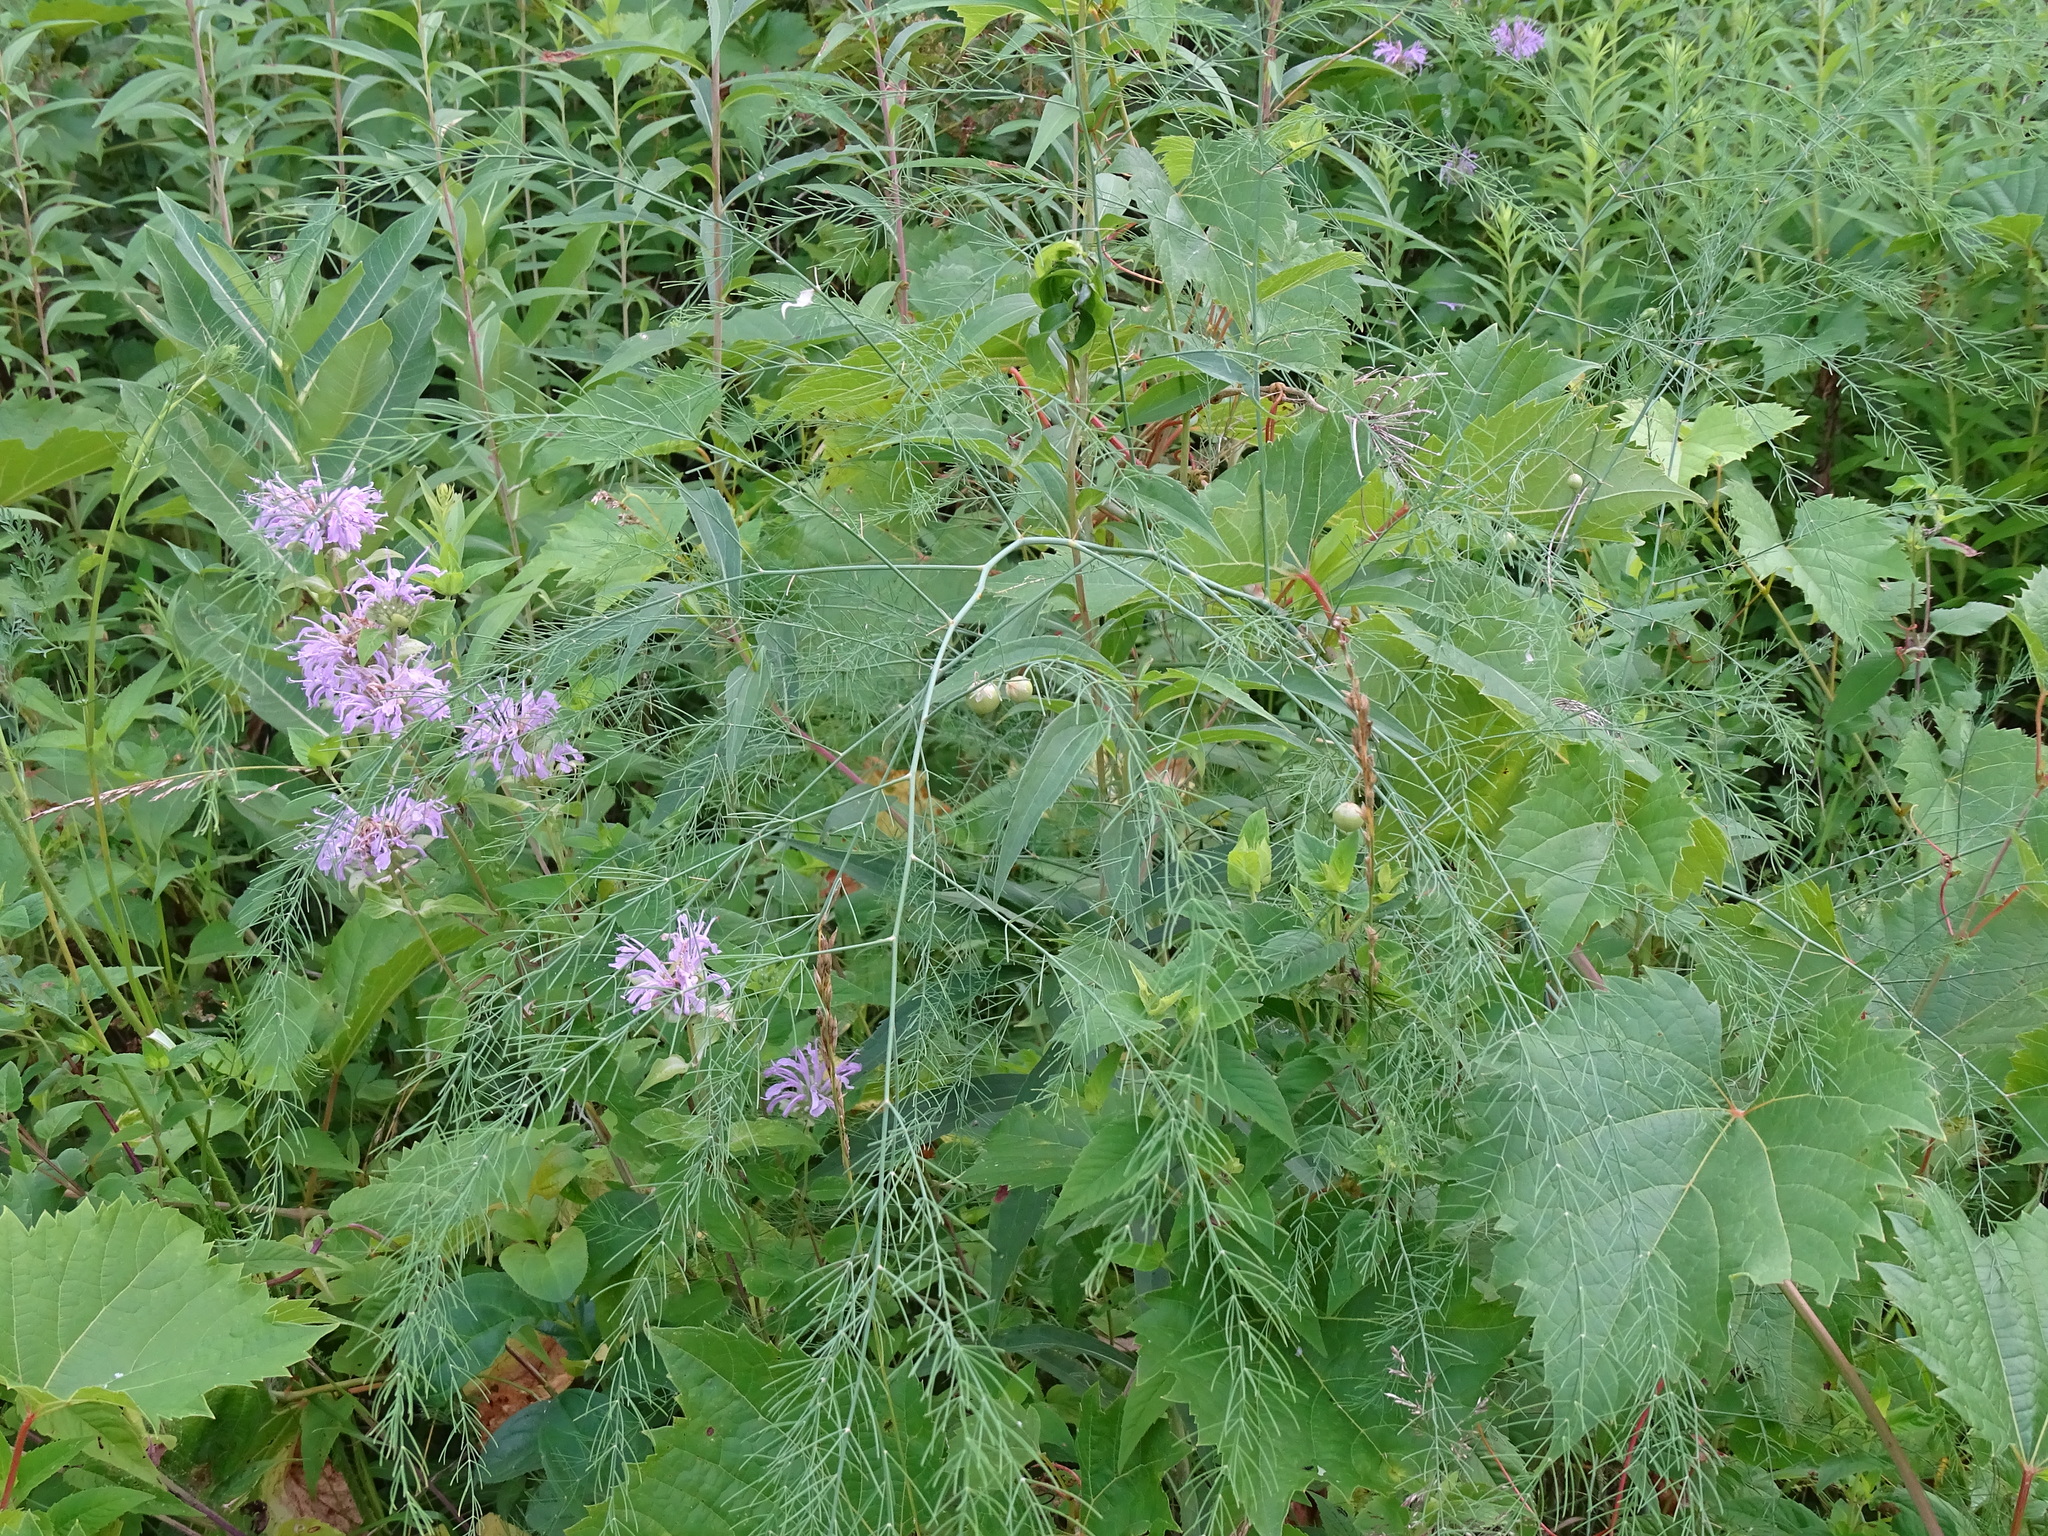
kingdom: Plantae
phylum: Tracheophyta
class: Liliopsida
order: Asparagales
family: Asparagaceae
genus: Asparagus
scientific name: Asparagus officinalis
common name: Garden asparagus
